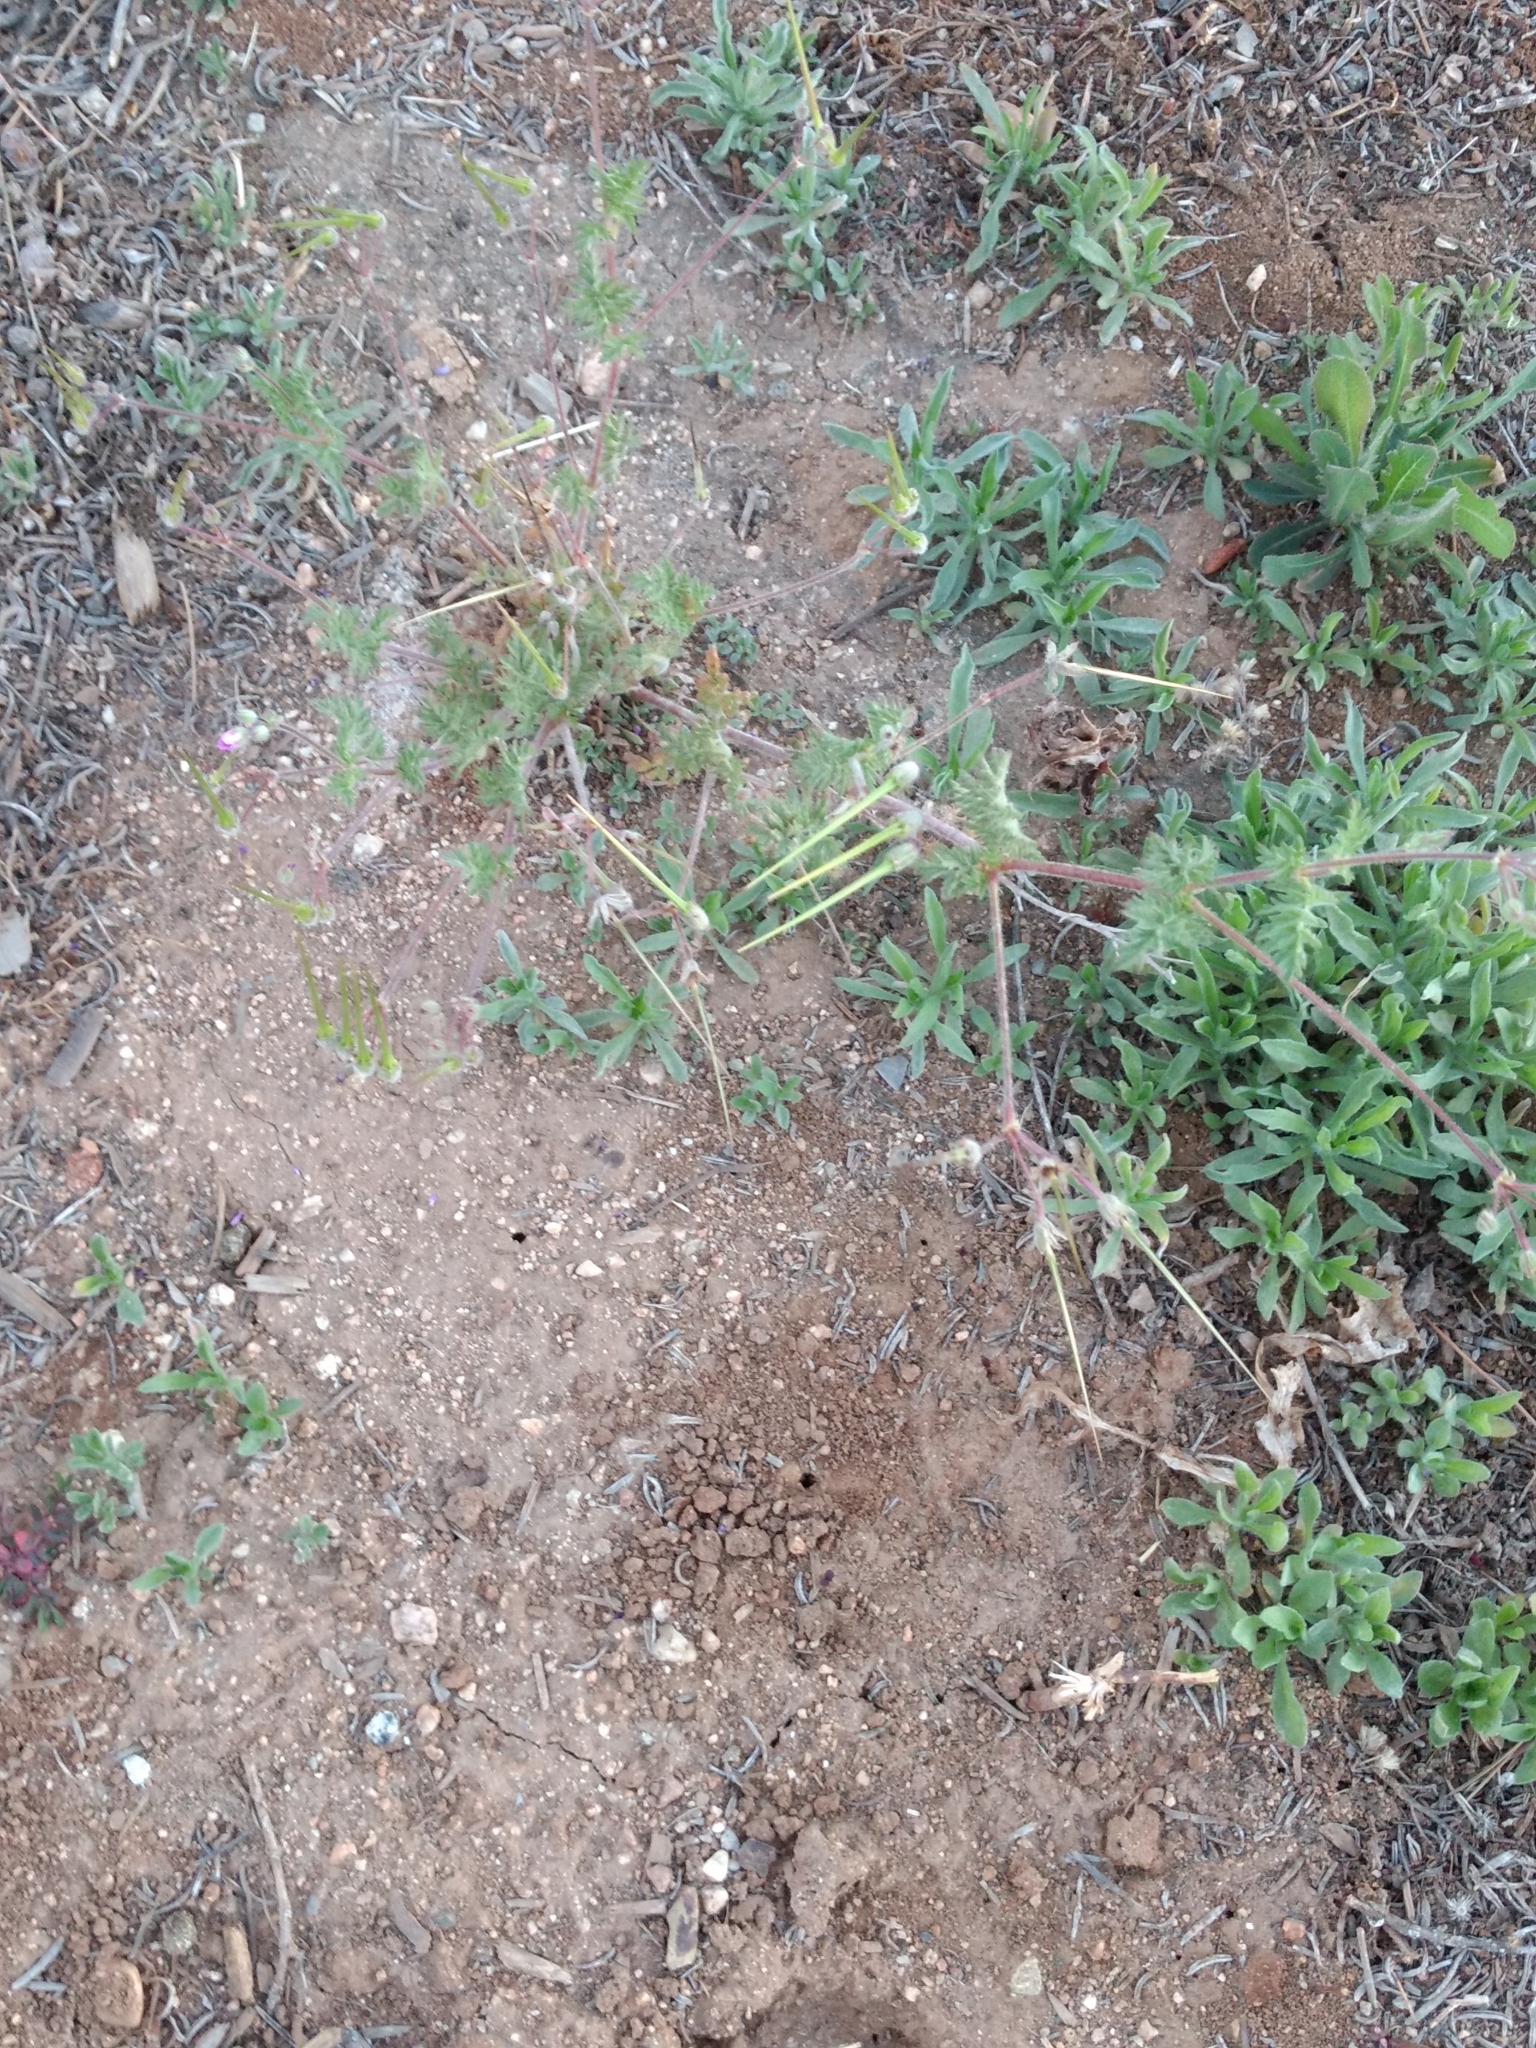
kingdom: Plantae
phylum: Tracheophyta
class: Magnoliopsida
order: Geraniales
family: Geraniaceae
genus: Erodium
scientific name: Erodium cicutarium
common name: Common stork's-bill
